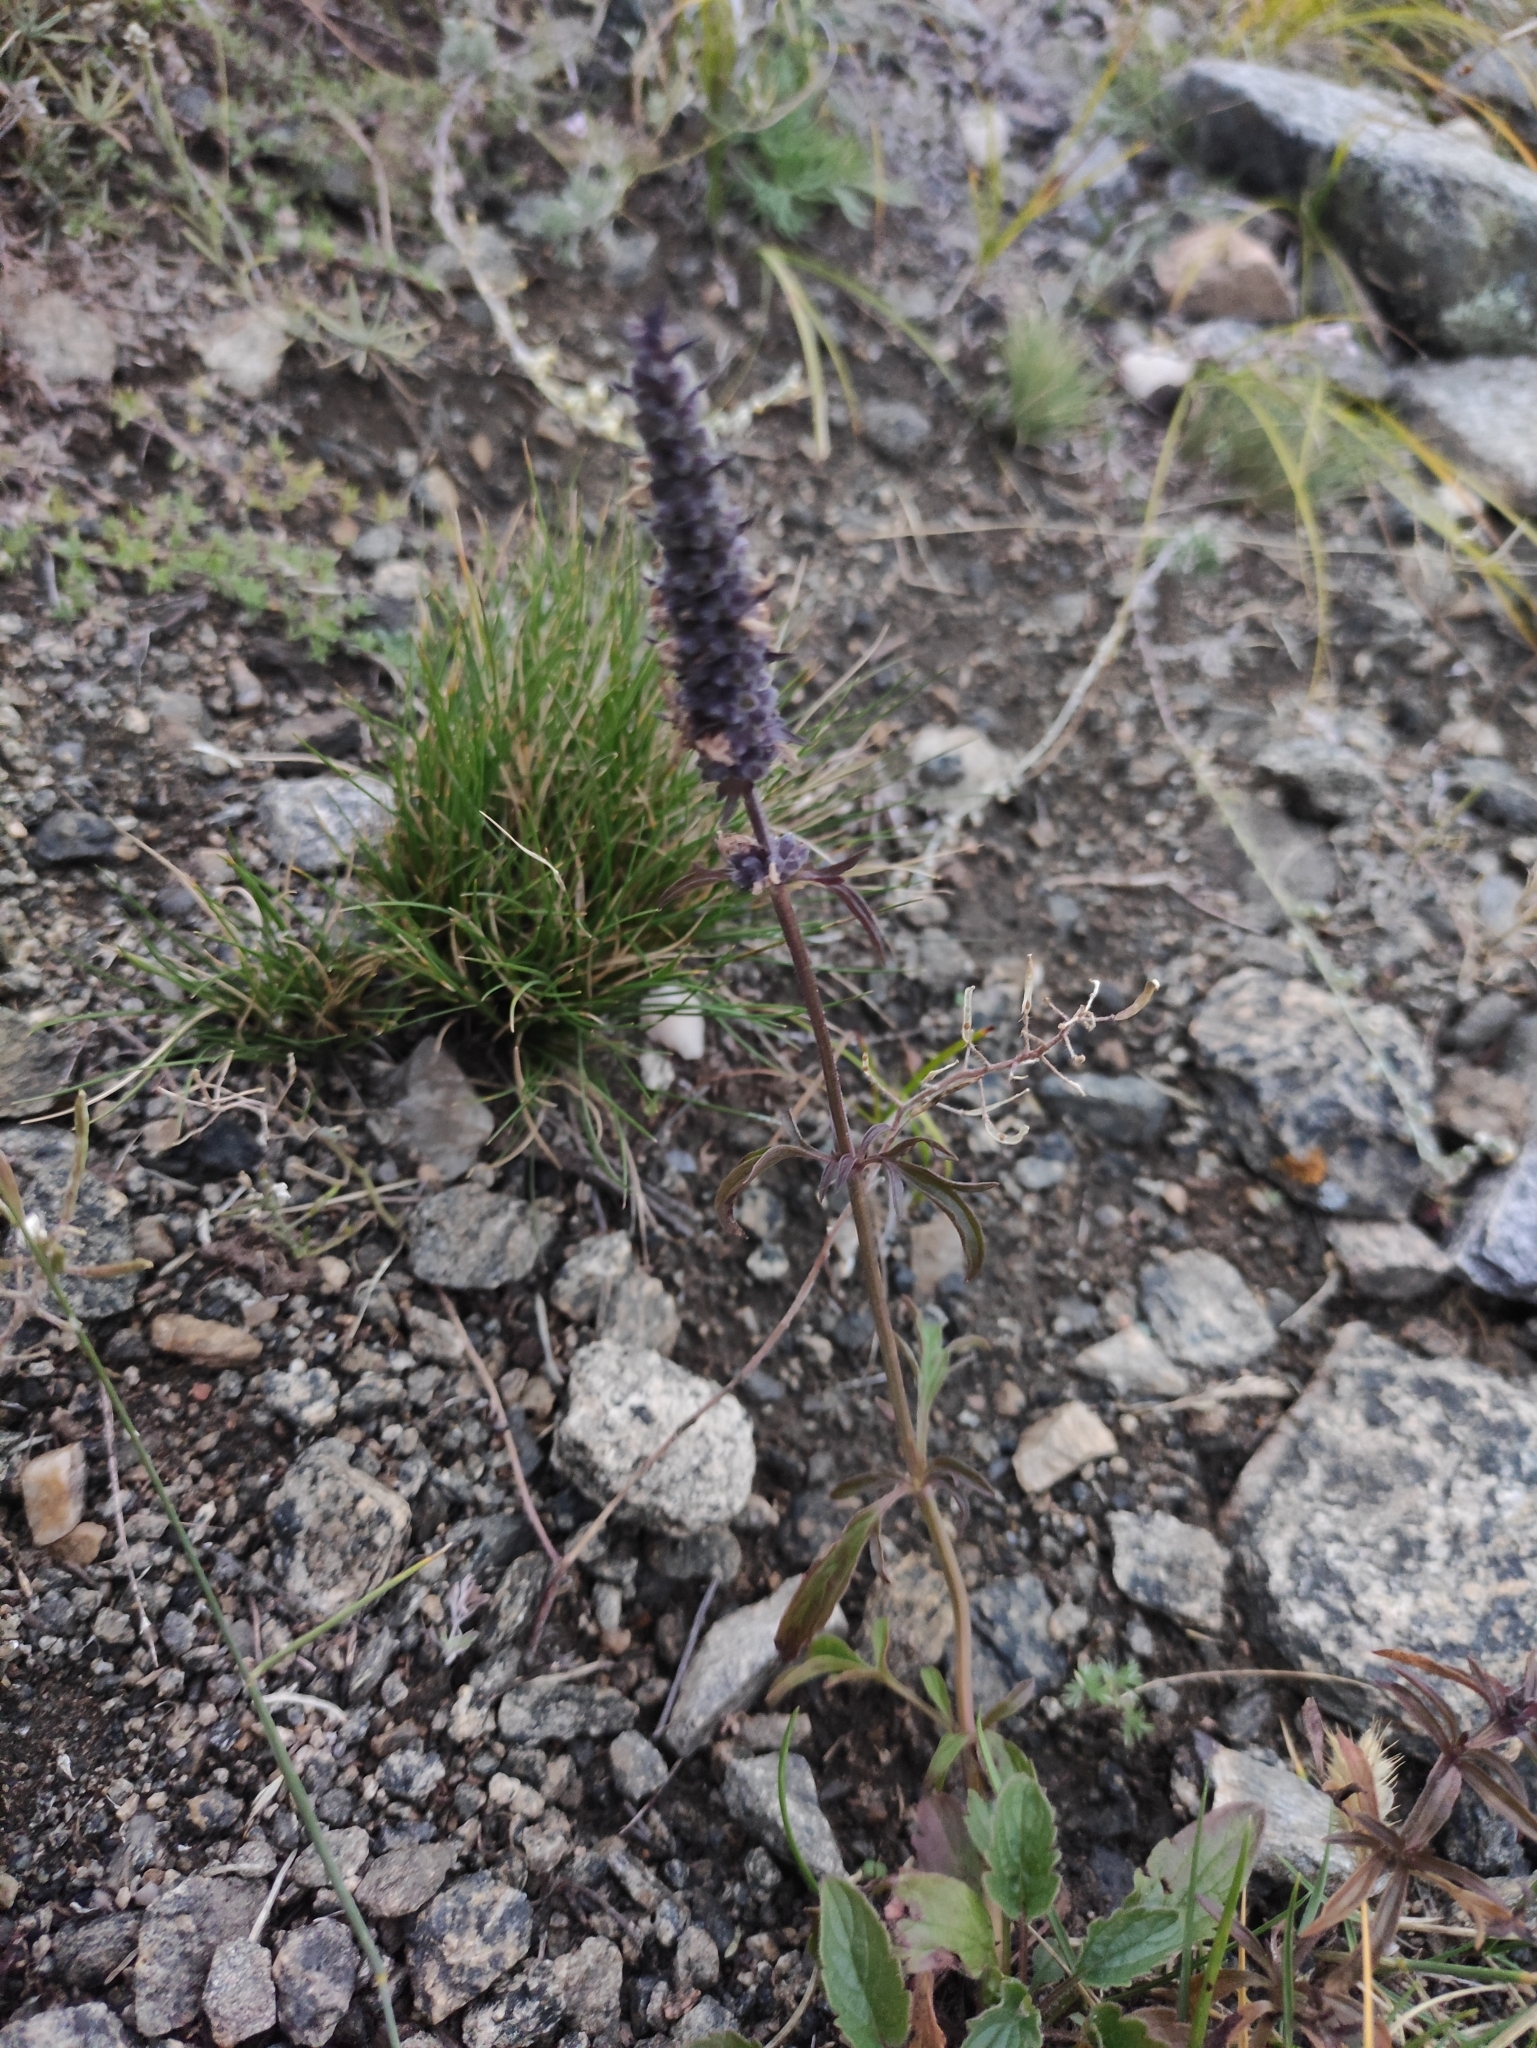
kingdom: Plantae
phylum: Tracheophyta
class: Magnoliopsida
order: Lamiales
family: Lamiaceae
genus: Nepeta
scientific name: Nepeta multifida
